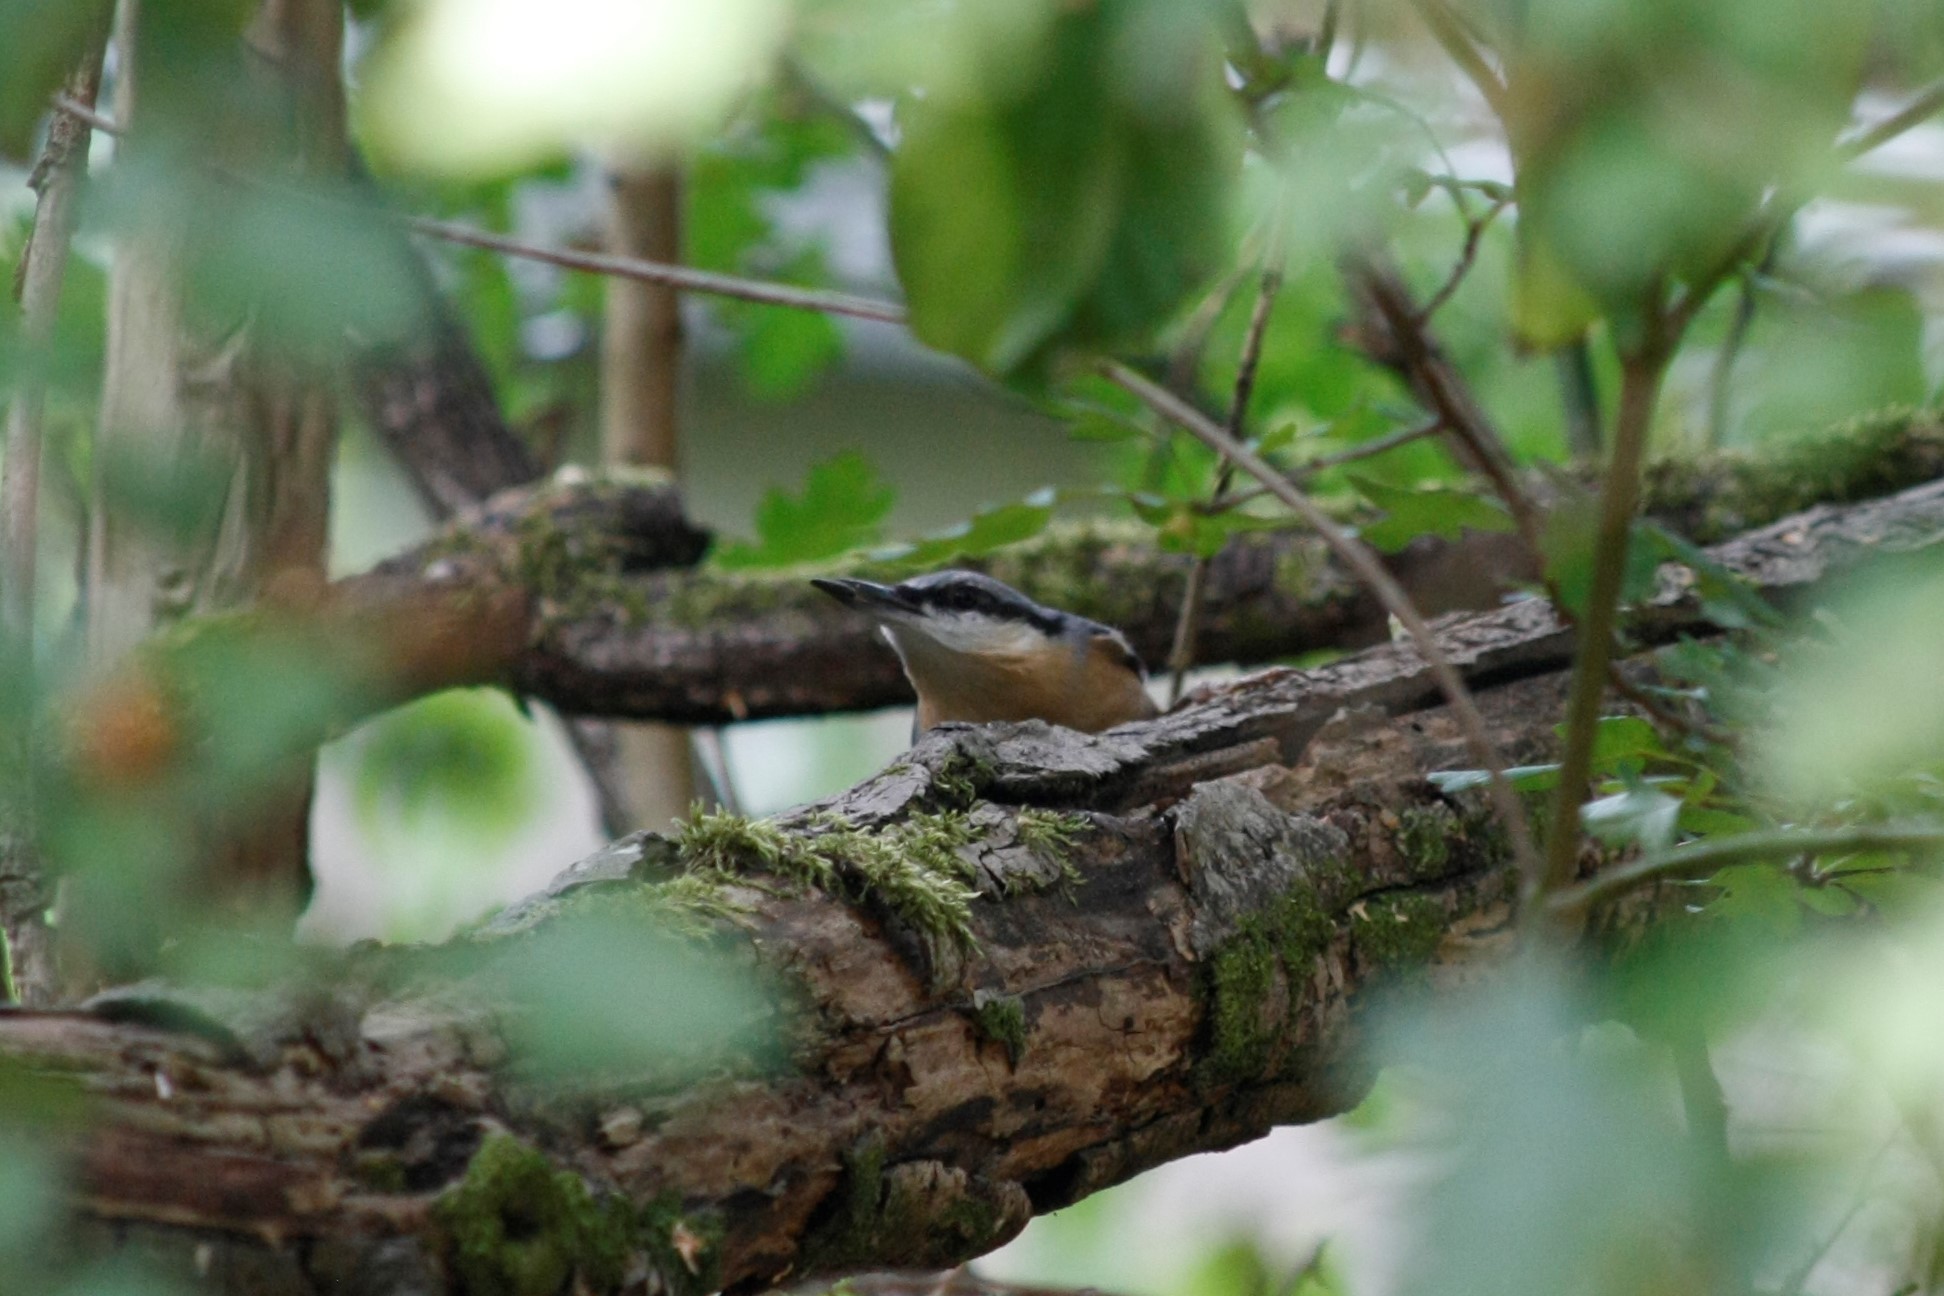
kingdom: Animalia
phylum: Chordata
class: Aves
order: Passeriformes
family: Sittidae
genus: Sitta
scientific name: Sitta europaea
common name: Eurasian nuthatch
